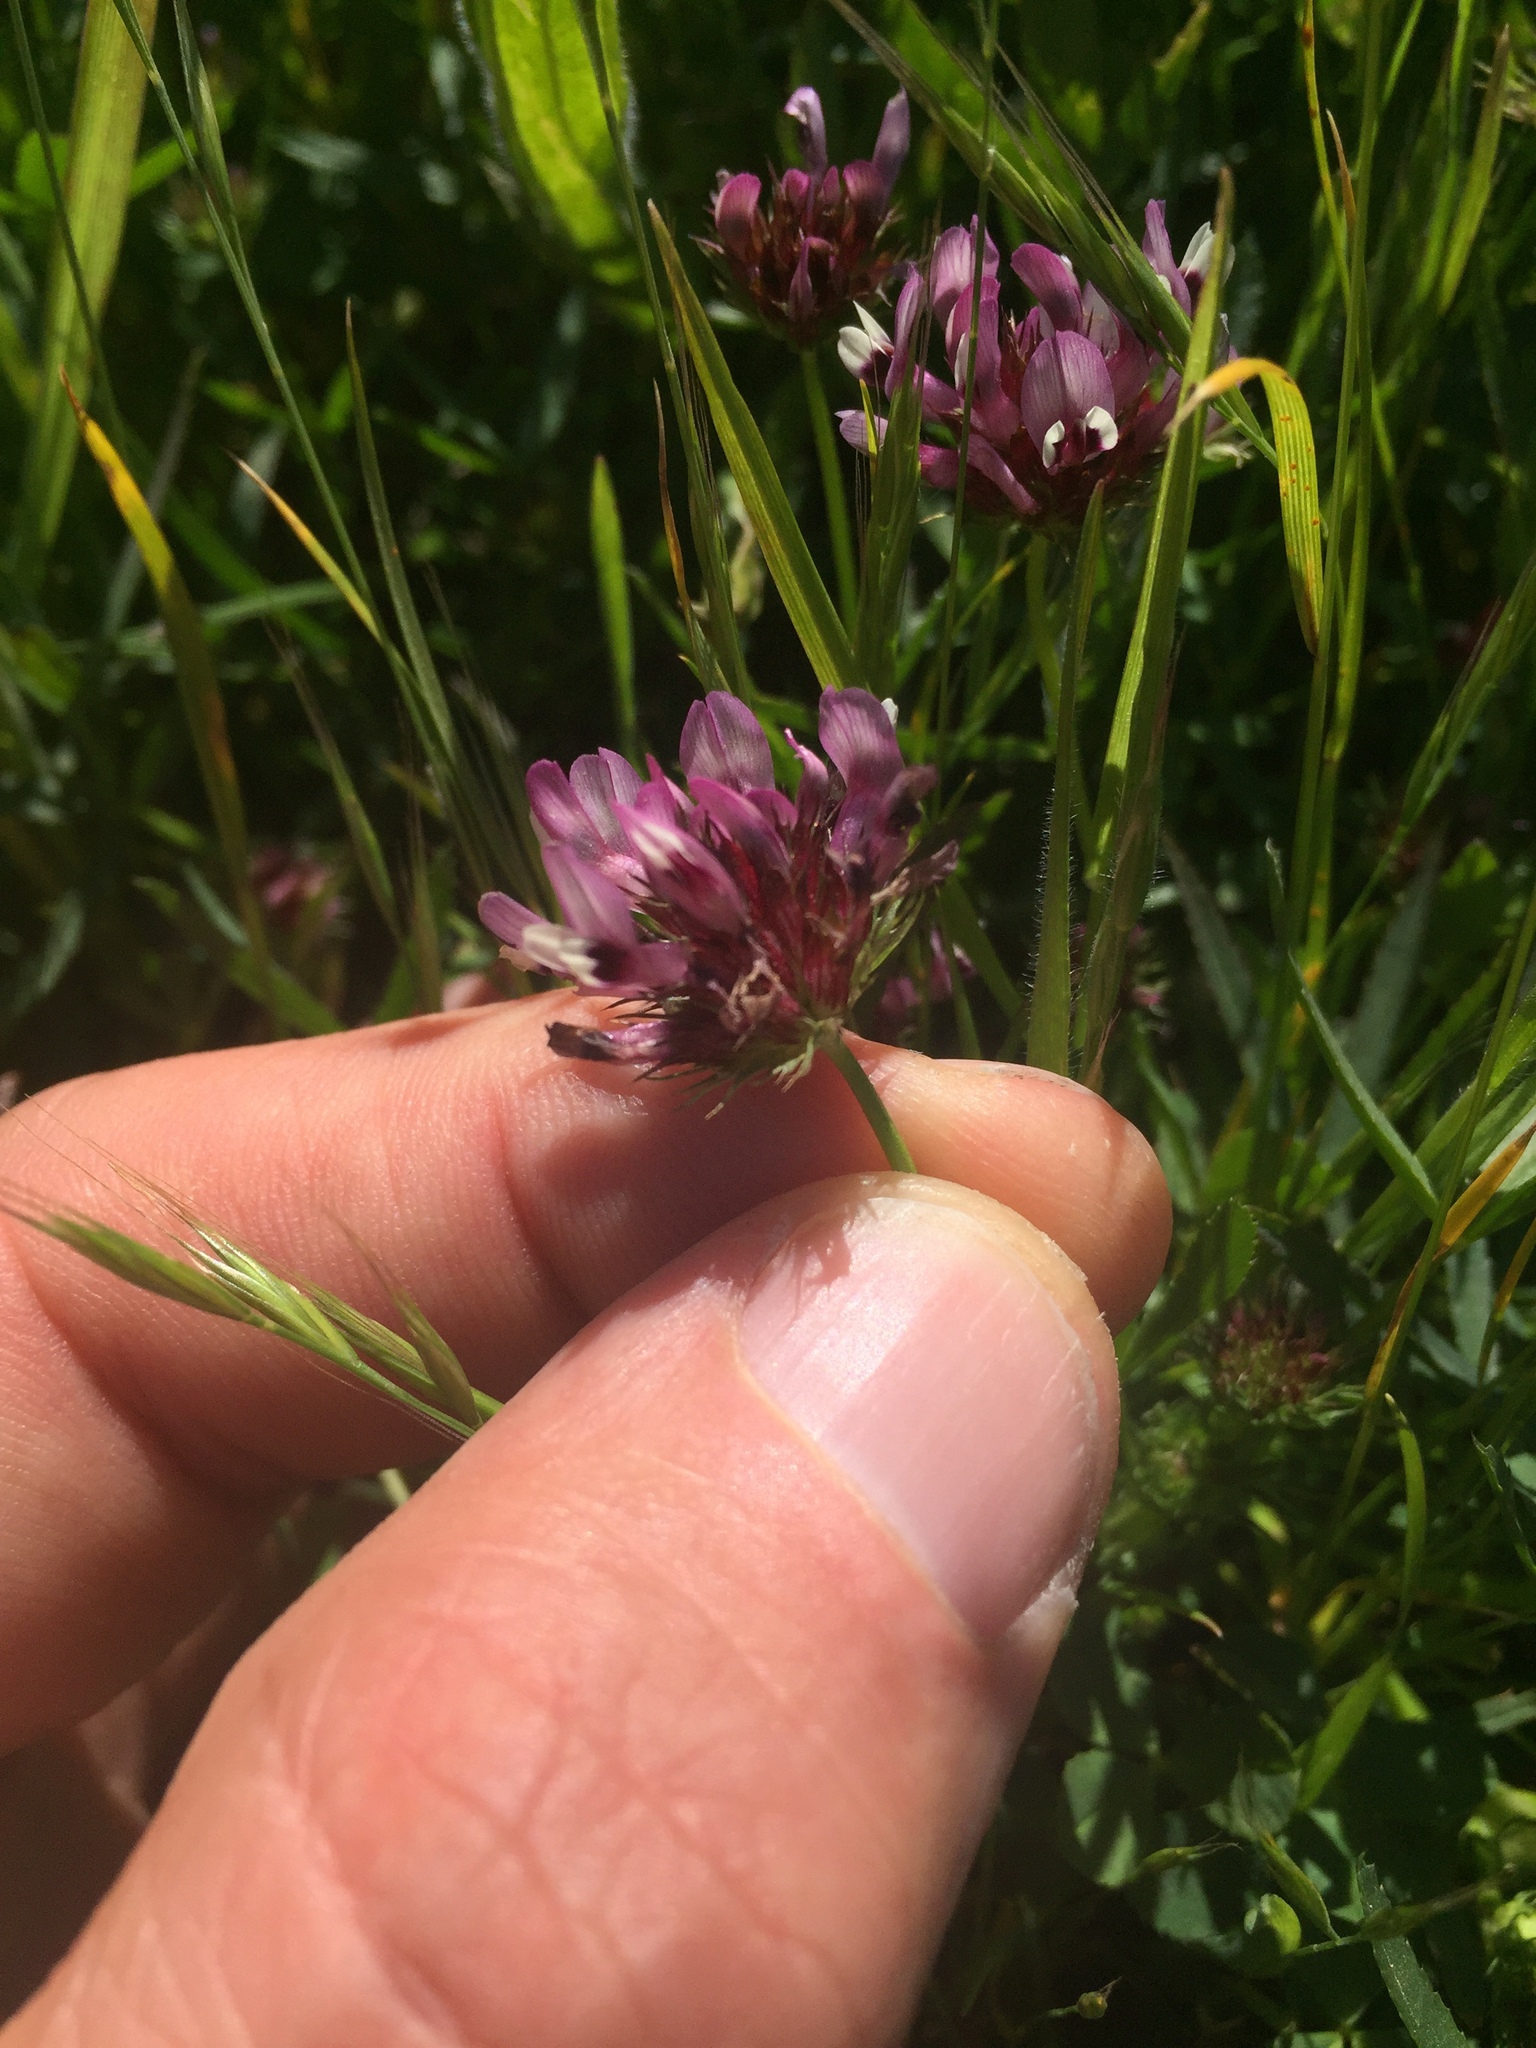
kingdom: Plantae
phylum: Tracheophyta
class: Magnoliopsida
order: Fabales
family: Fabaceae
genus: Trifolium
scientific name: Trifolium willdenovii
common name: Tomcat clover
